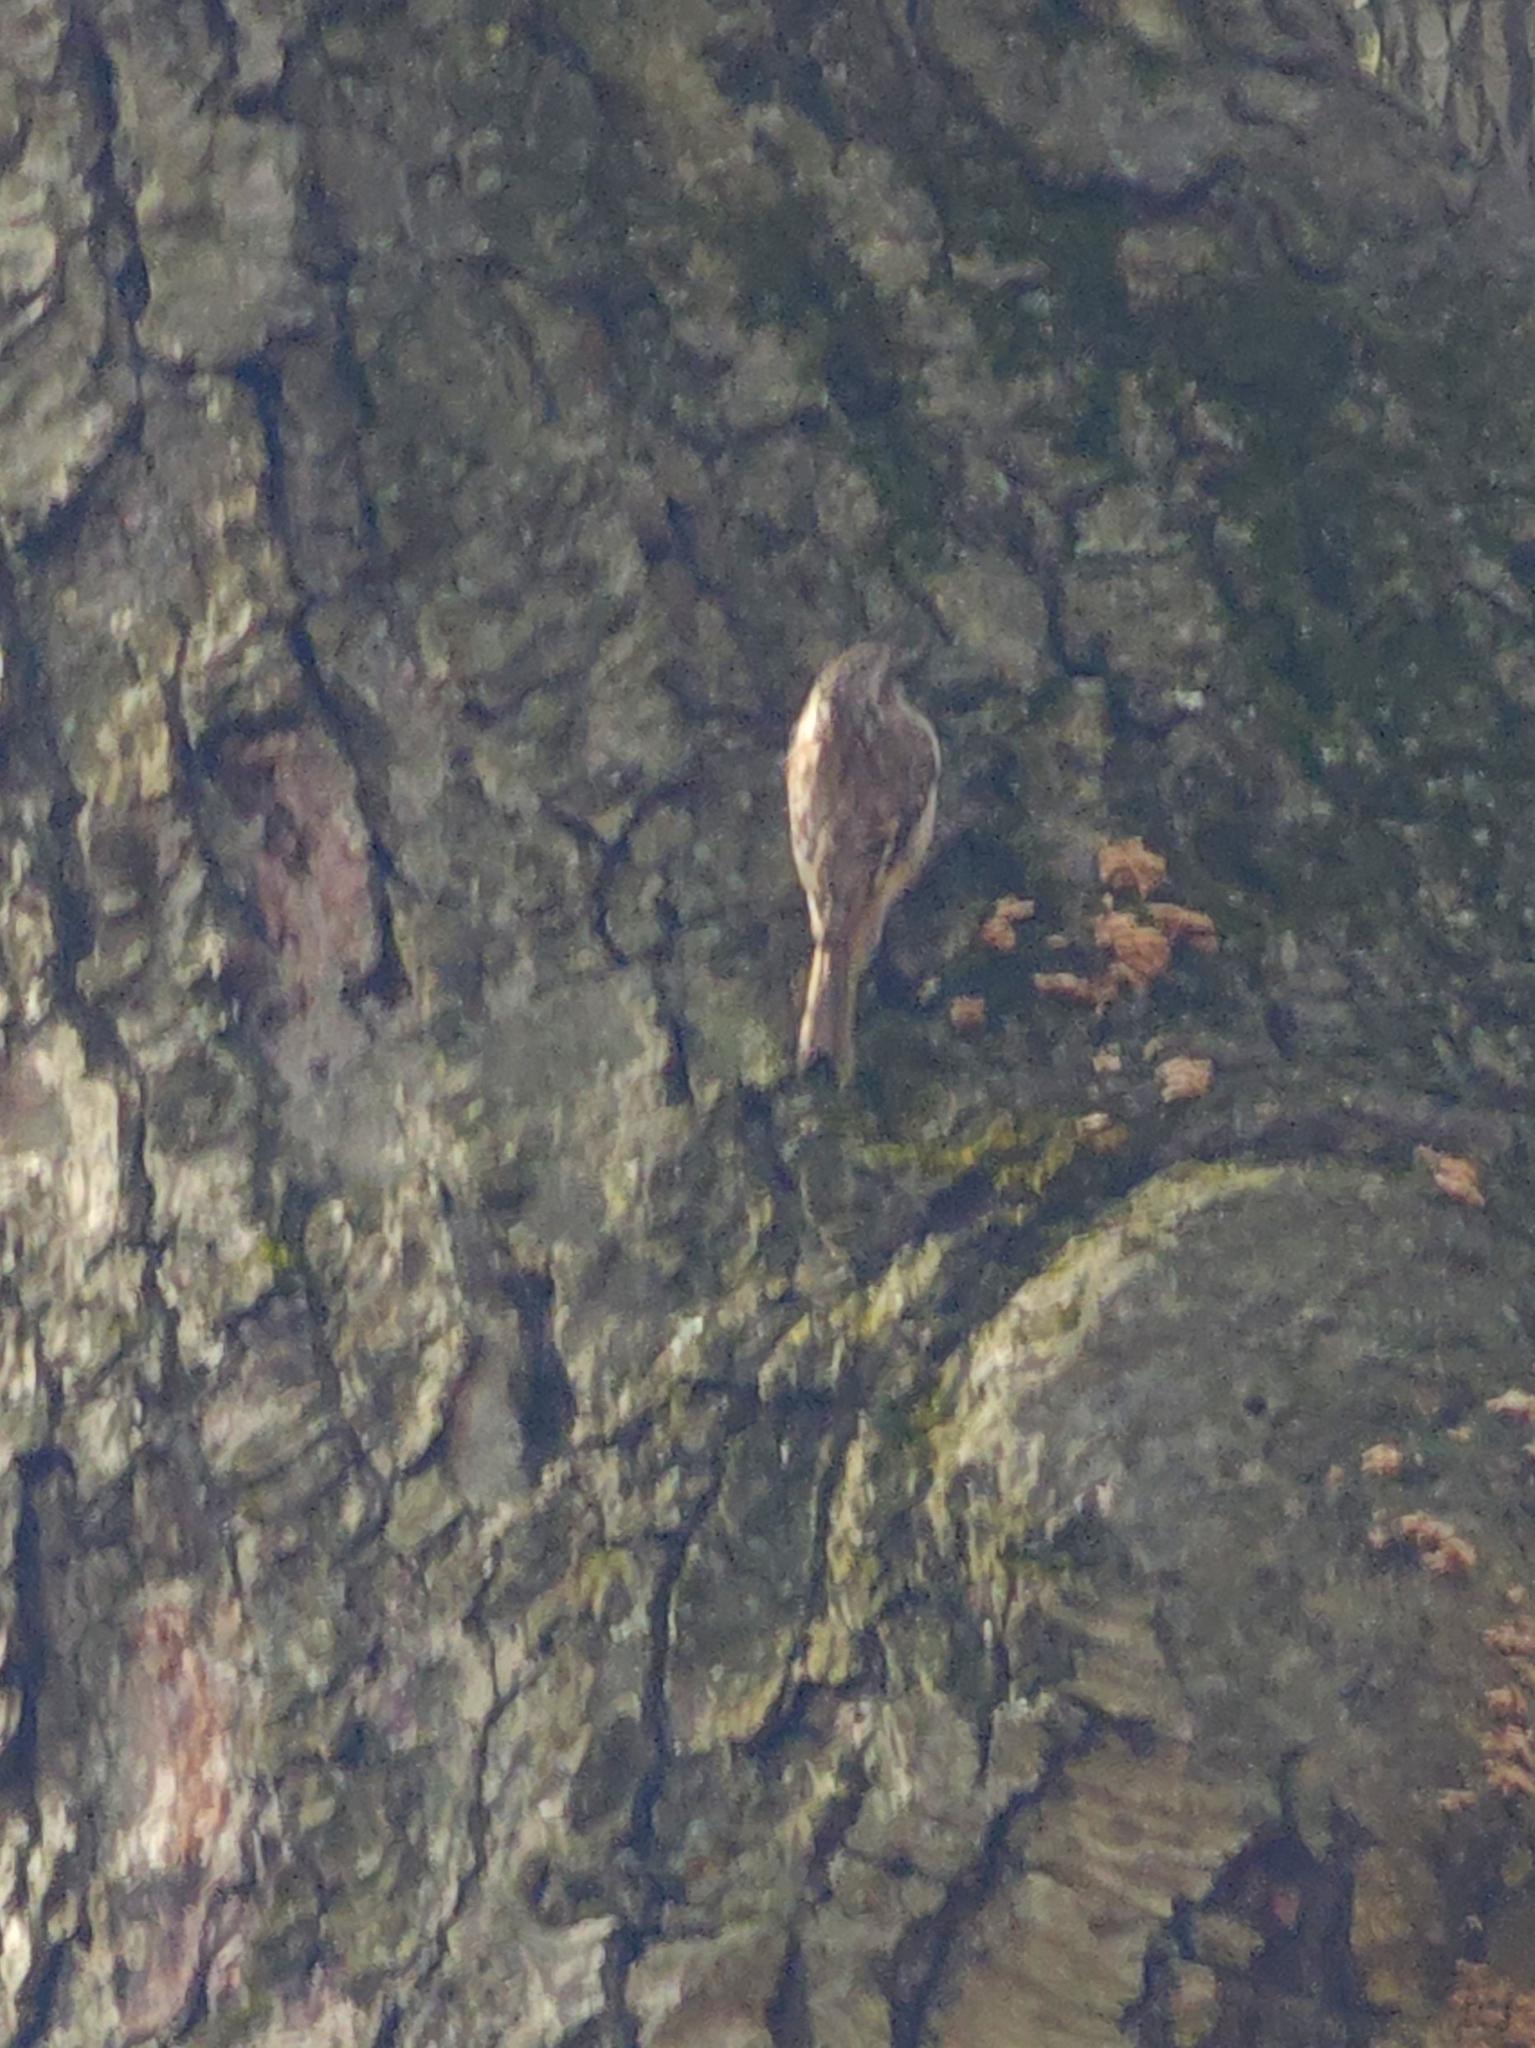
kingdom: Animalia
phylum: Chordata
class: Aves
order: Passeriformes
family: Certhiidae
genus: Certhia
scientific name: Certhia americana
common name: Brown creeper
